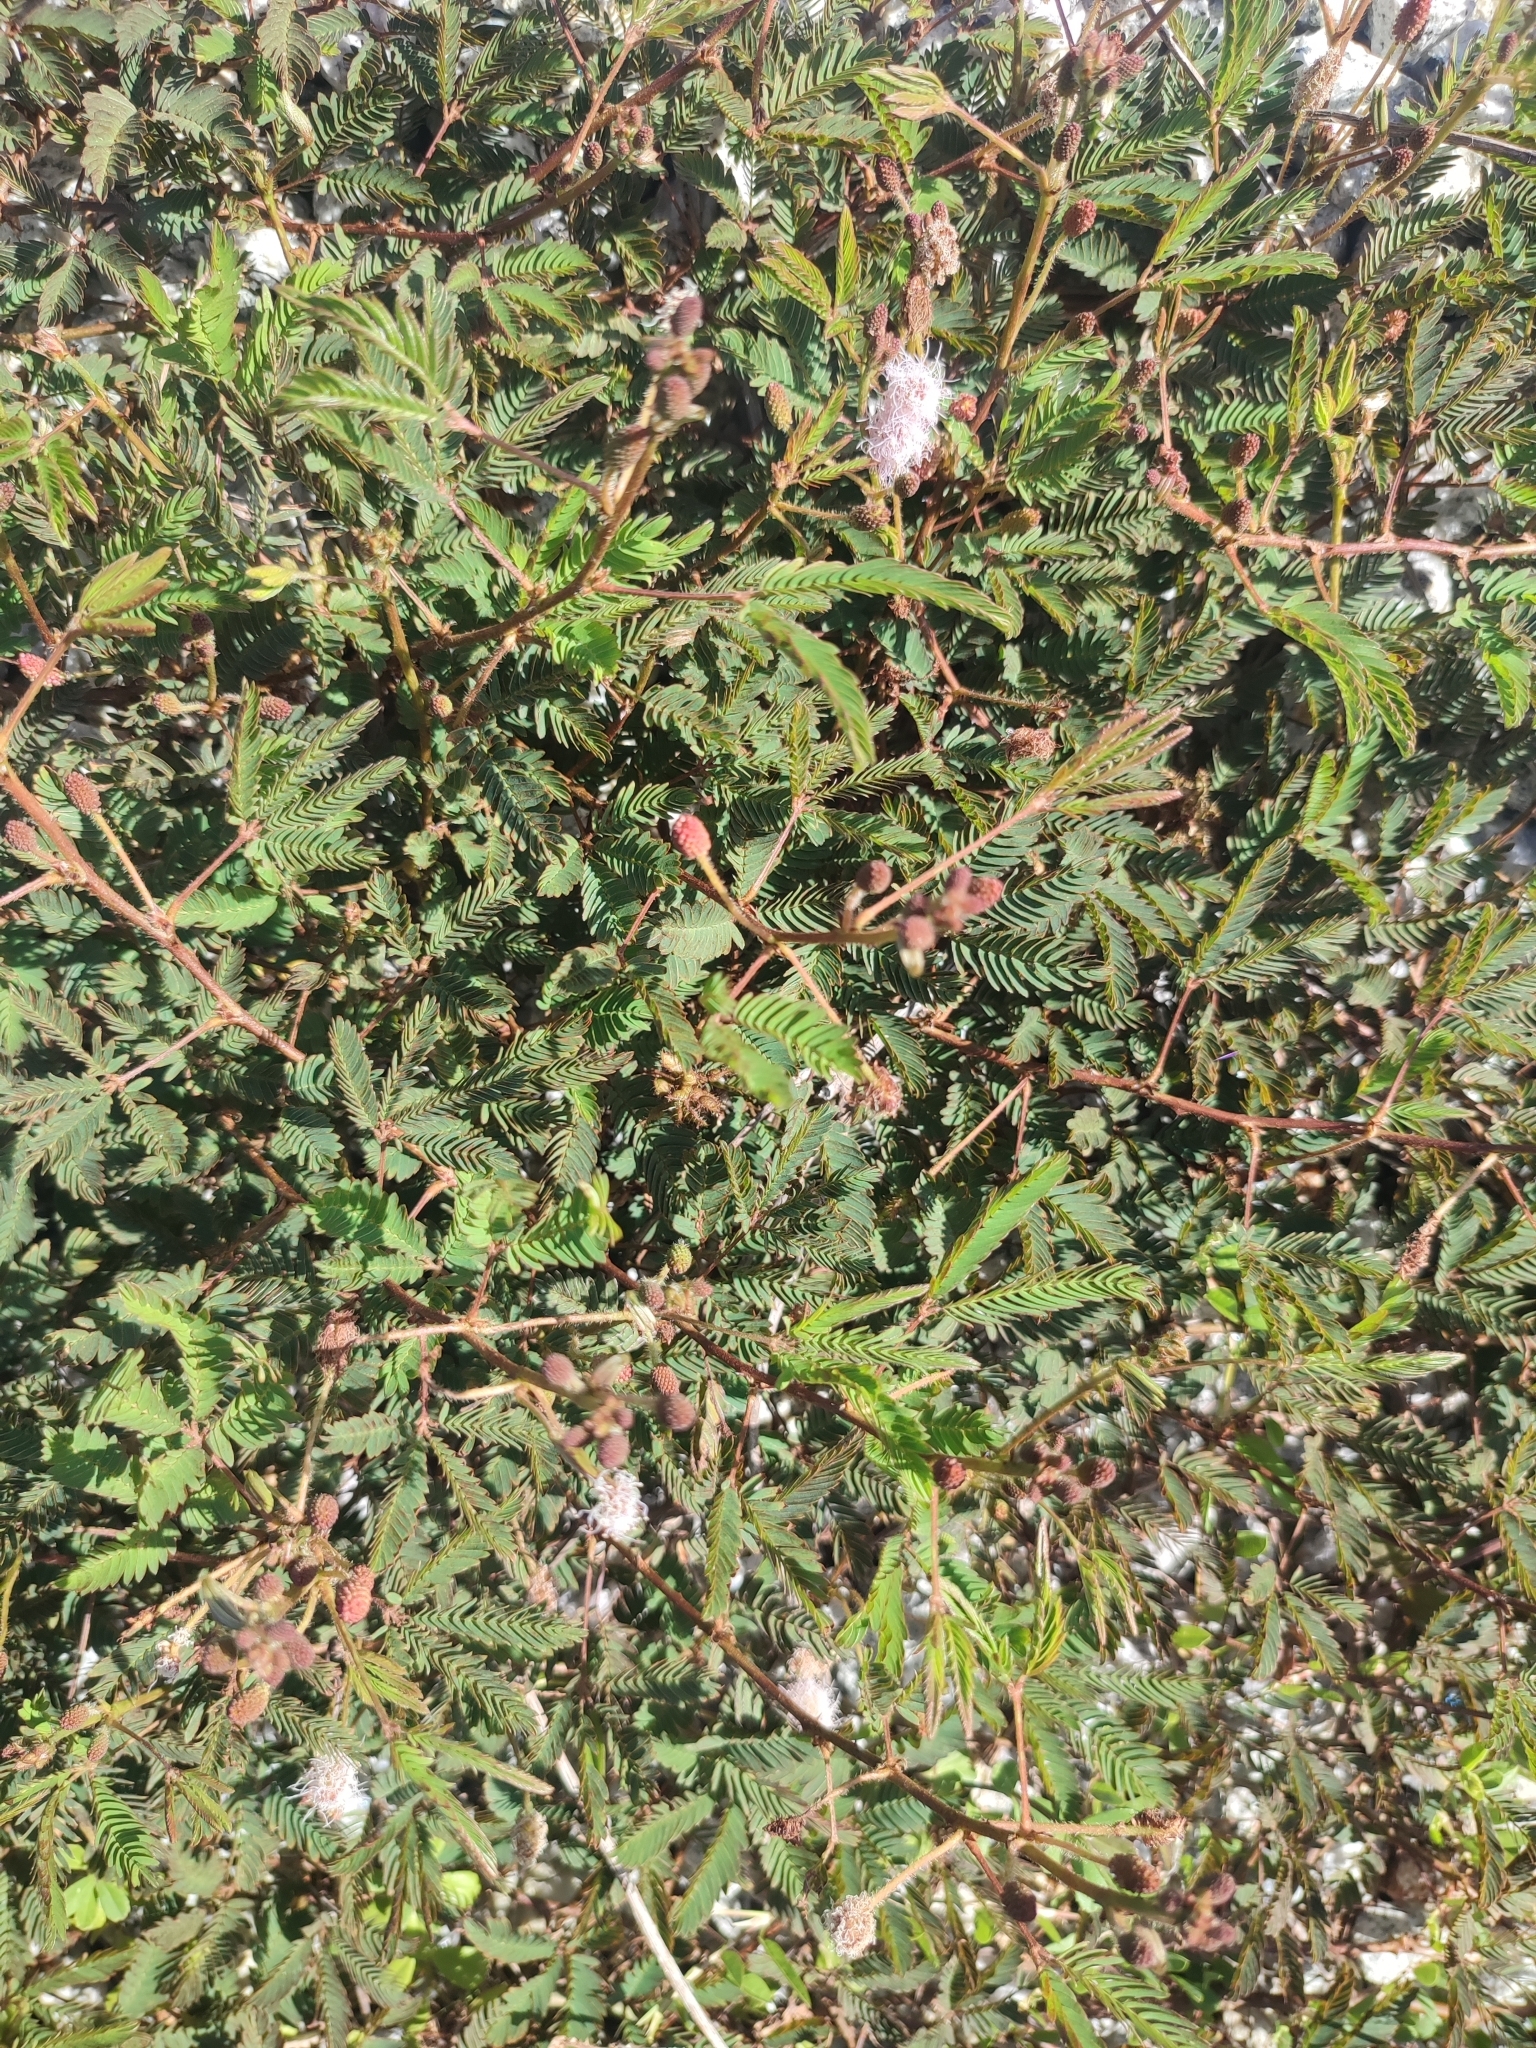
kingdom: Plantae
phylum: Tracheophyta
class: Magnoliopsida
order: Fabales
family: Fabaceae
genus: Mimosa
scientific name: Mimosa pudica
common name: Sensitive plant
